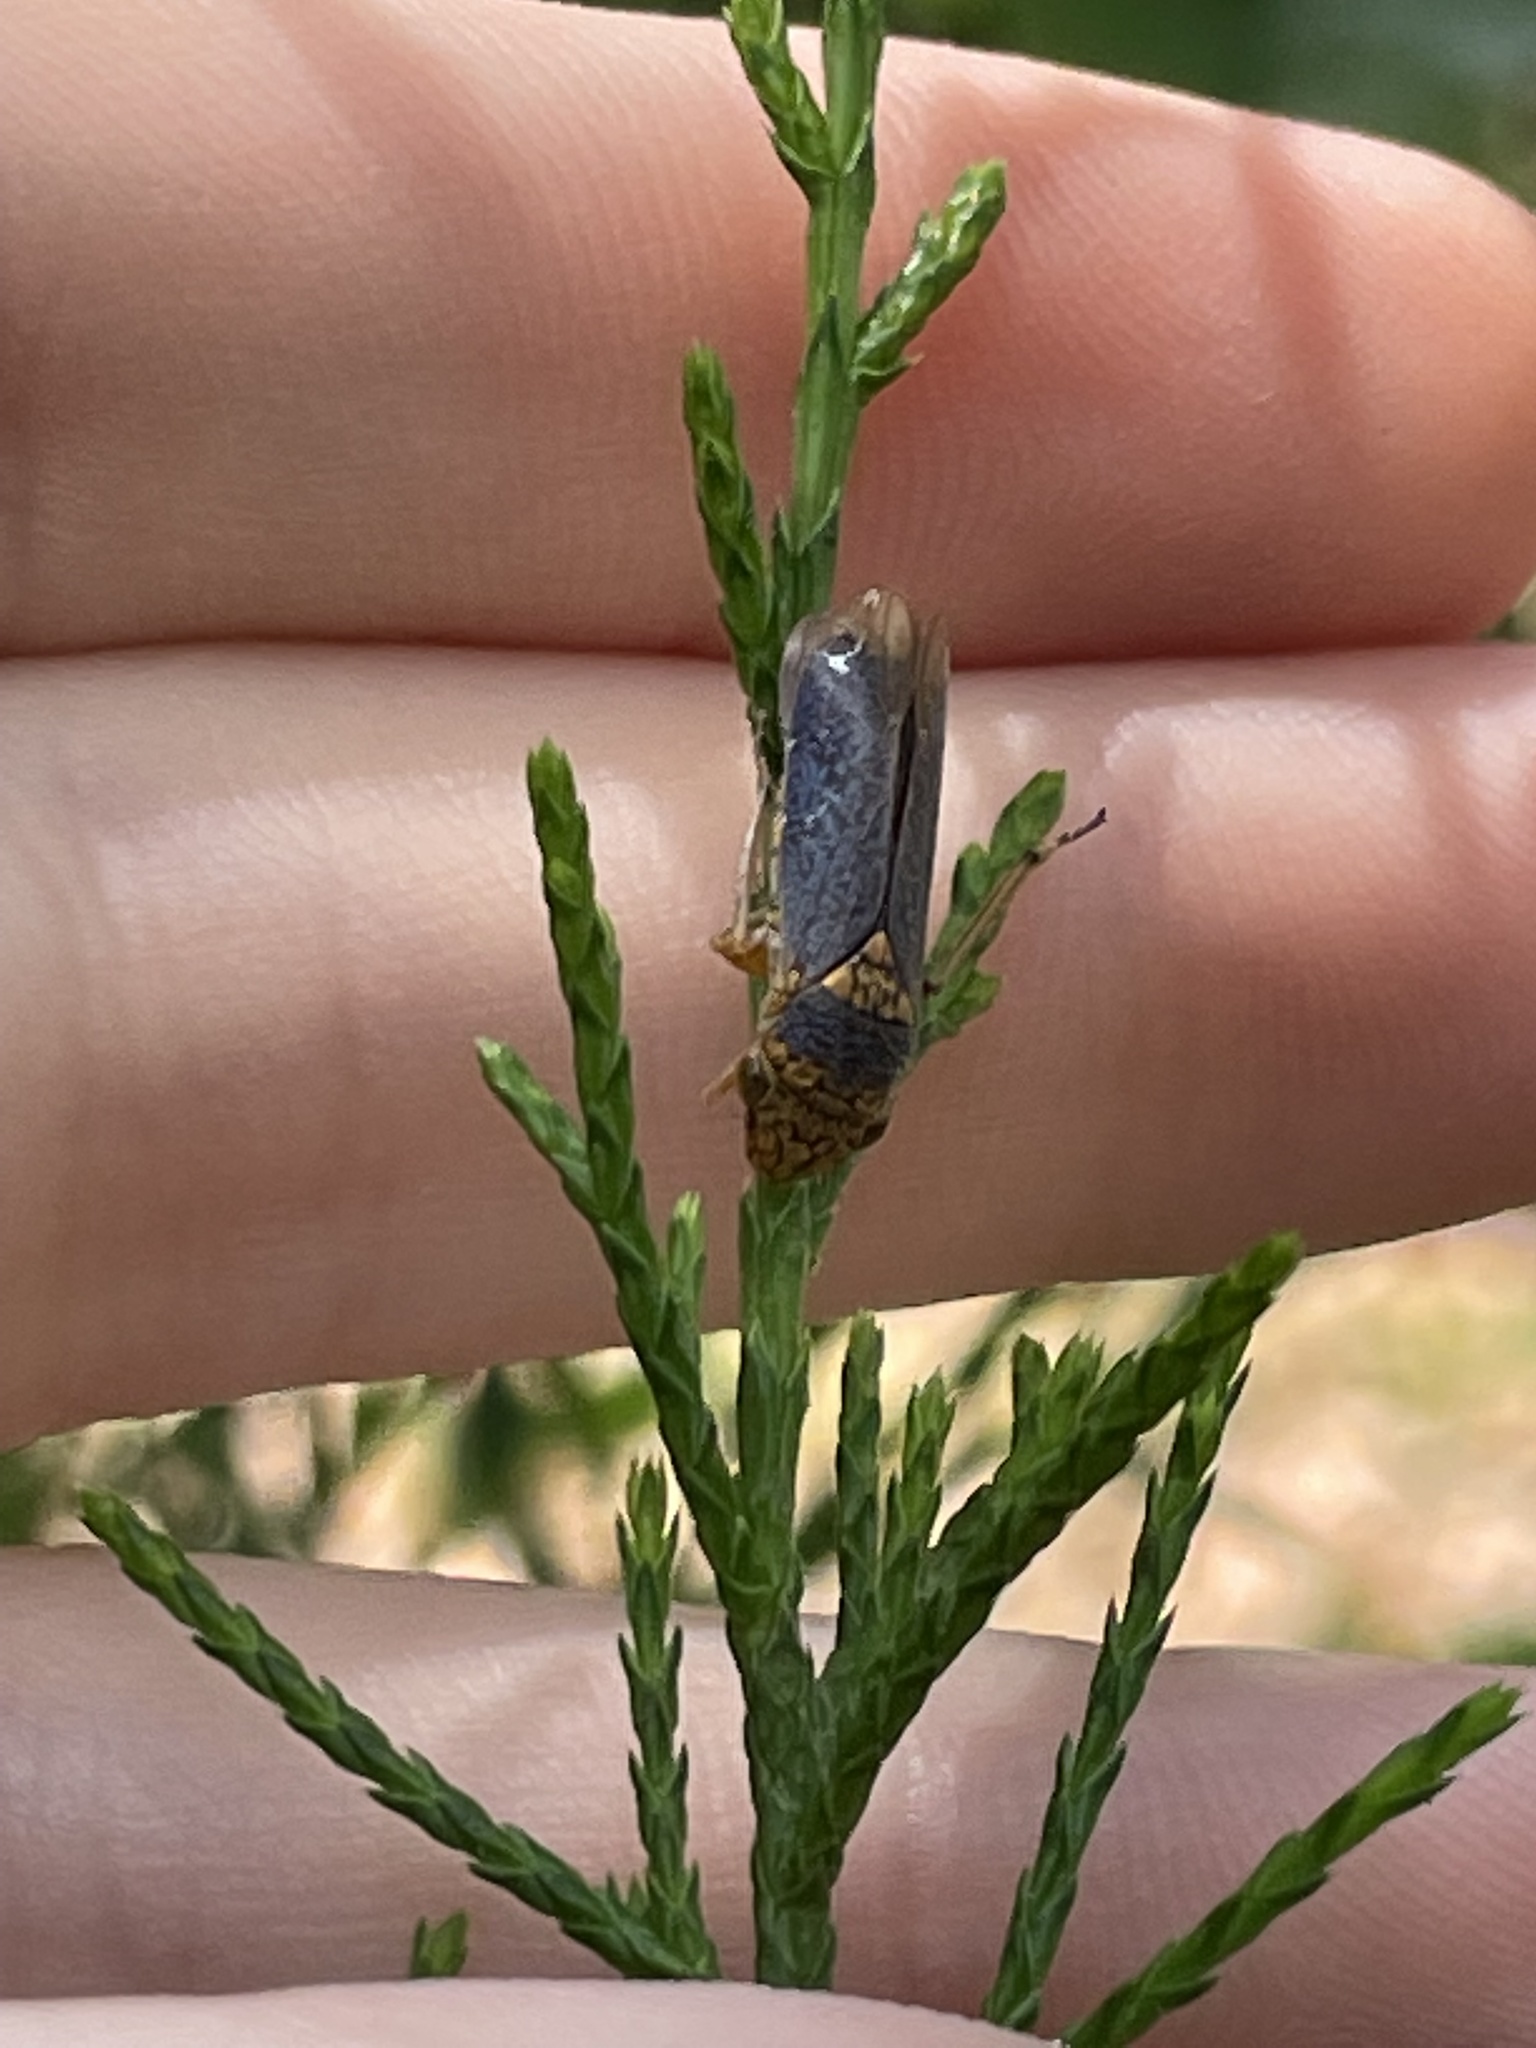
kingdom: Animalia
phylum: Arthropoda
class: Insecta
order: Hemiptera
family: Cicadellidae
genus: Oncometopia
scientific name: Oncometopia orbona
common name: Broad-headed sharpshooter
